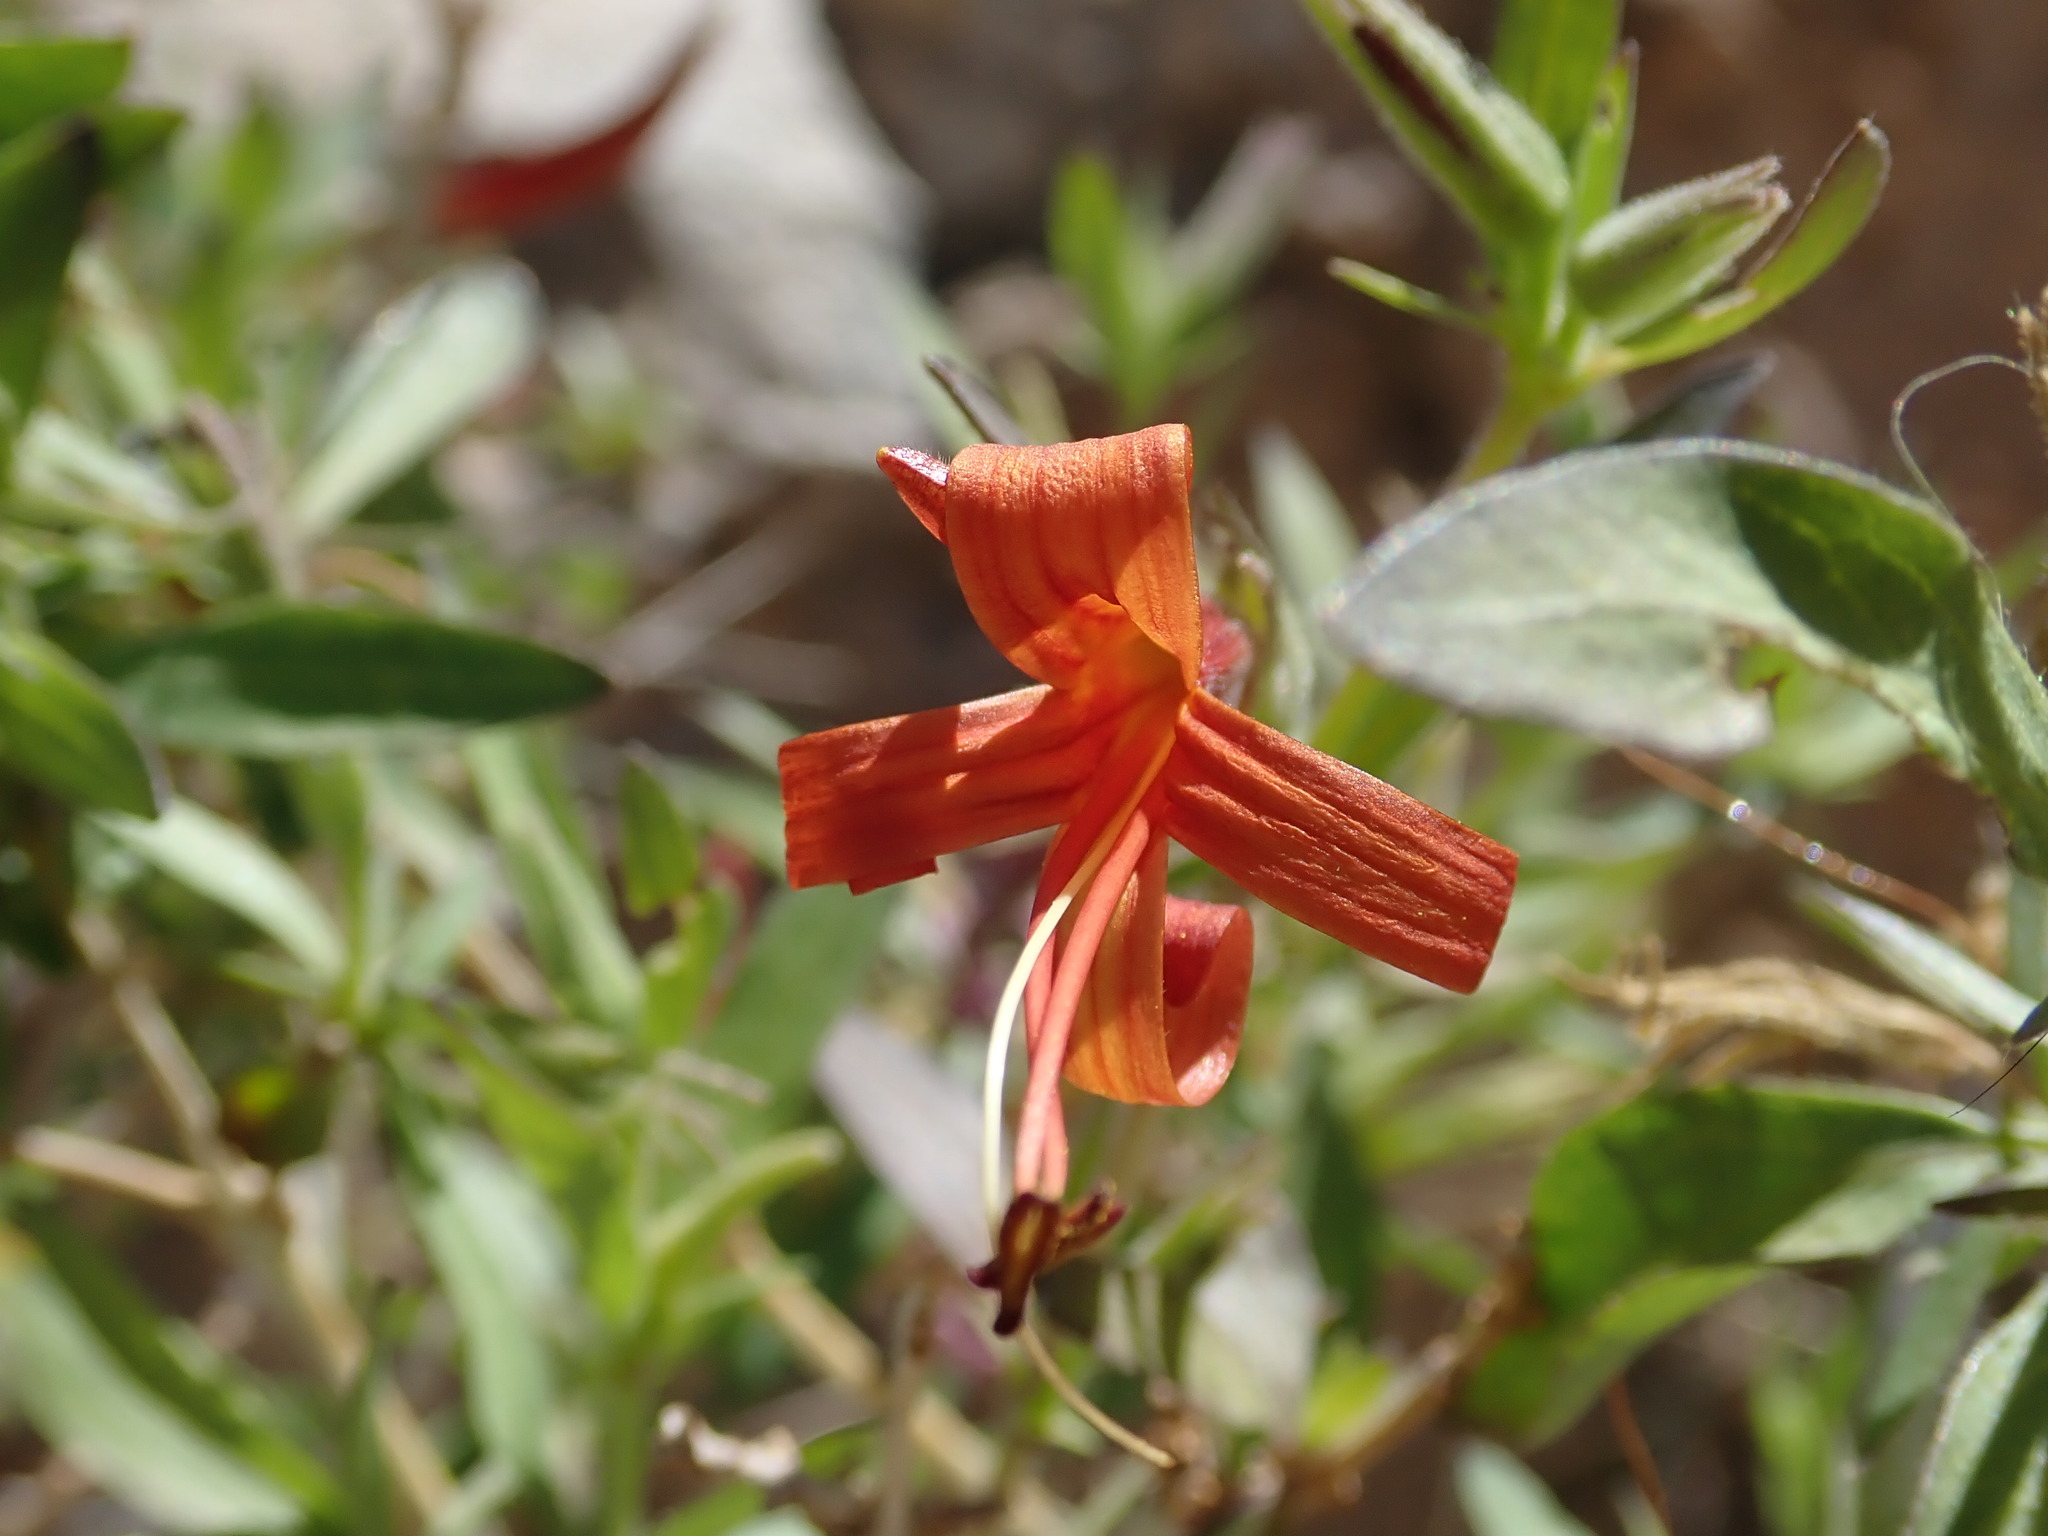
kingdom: Plantae
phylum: Tracheophyta
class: Magnoliopsida
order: Lamiales
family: Acanthaceae
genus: Anisacanthus
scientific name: Anisacanthus thurberi
